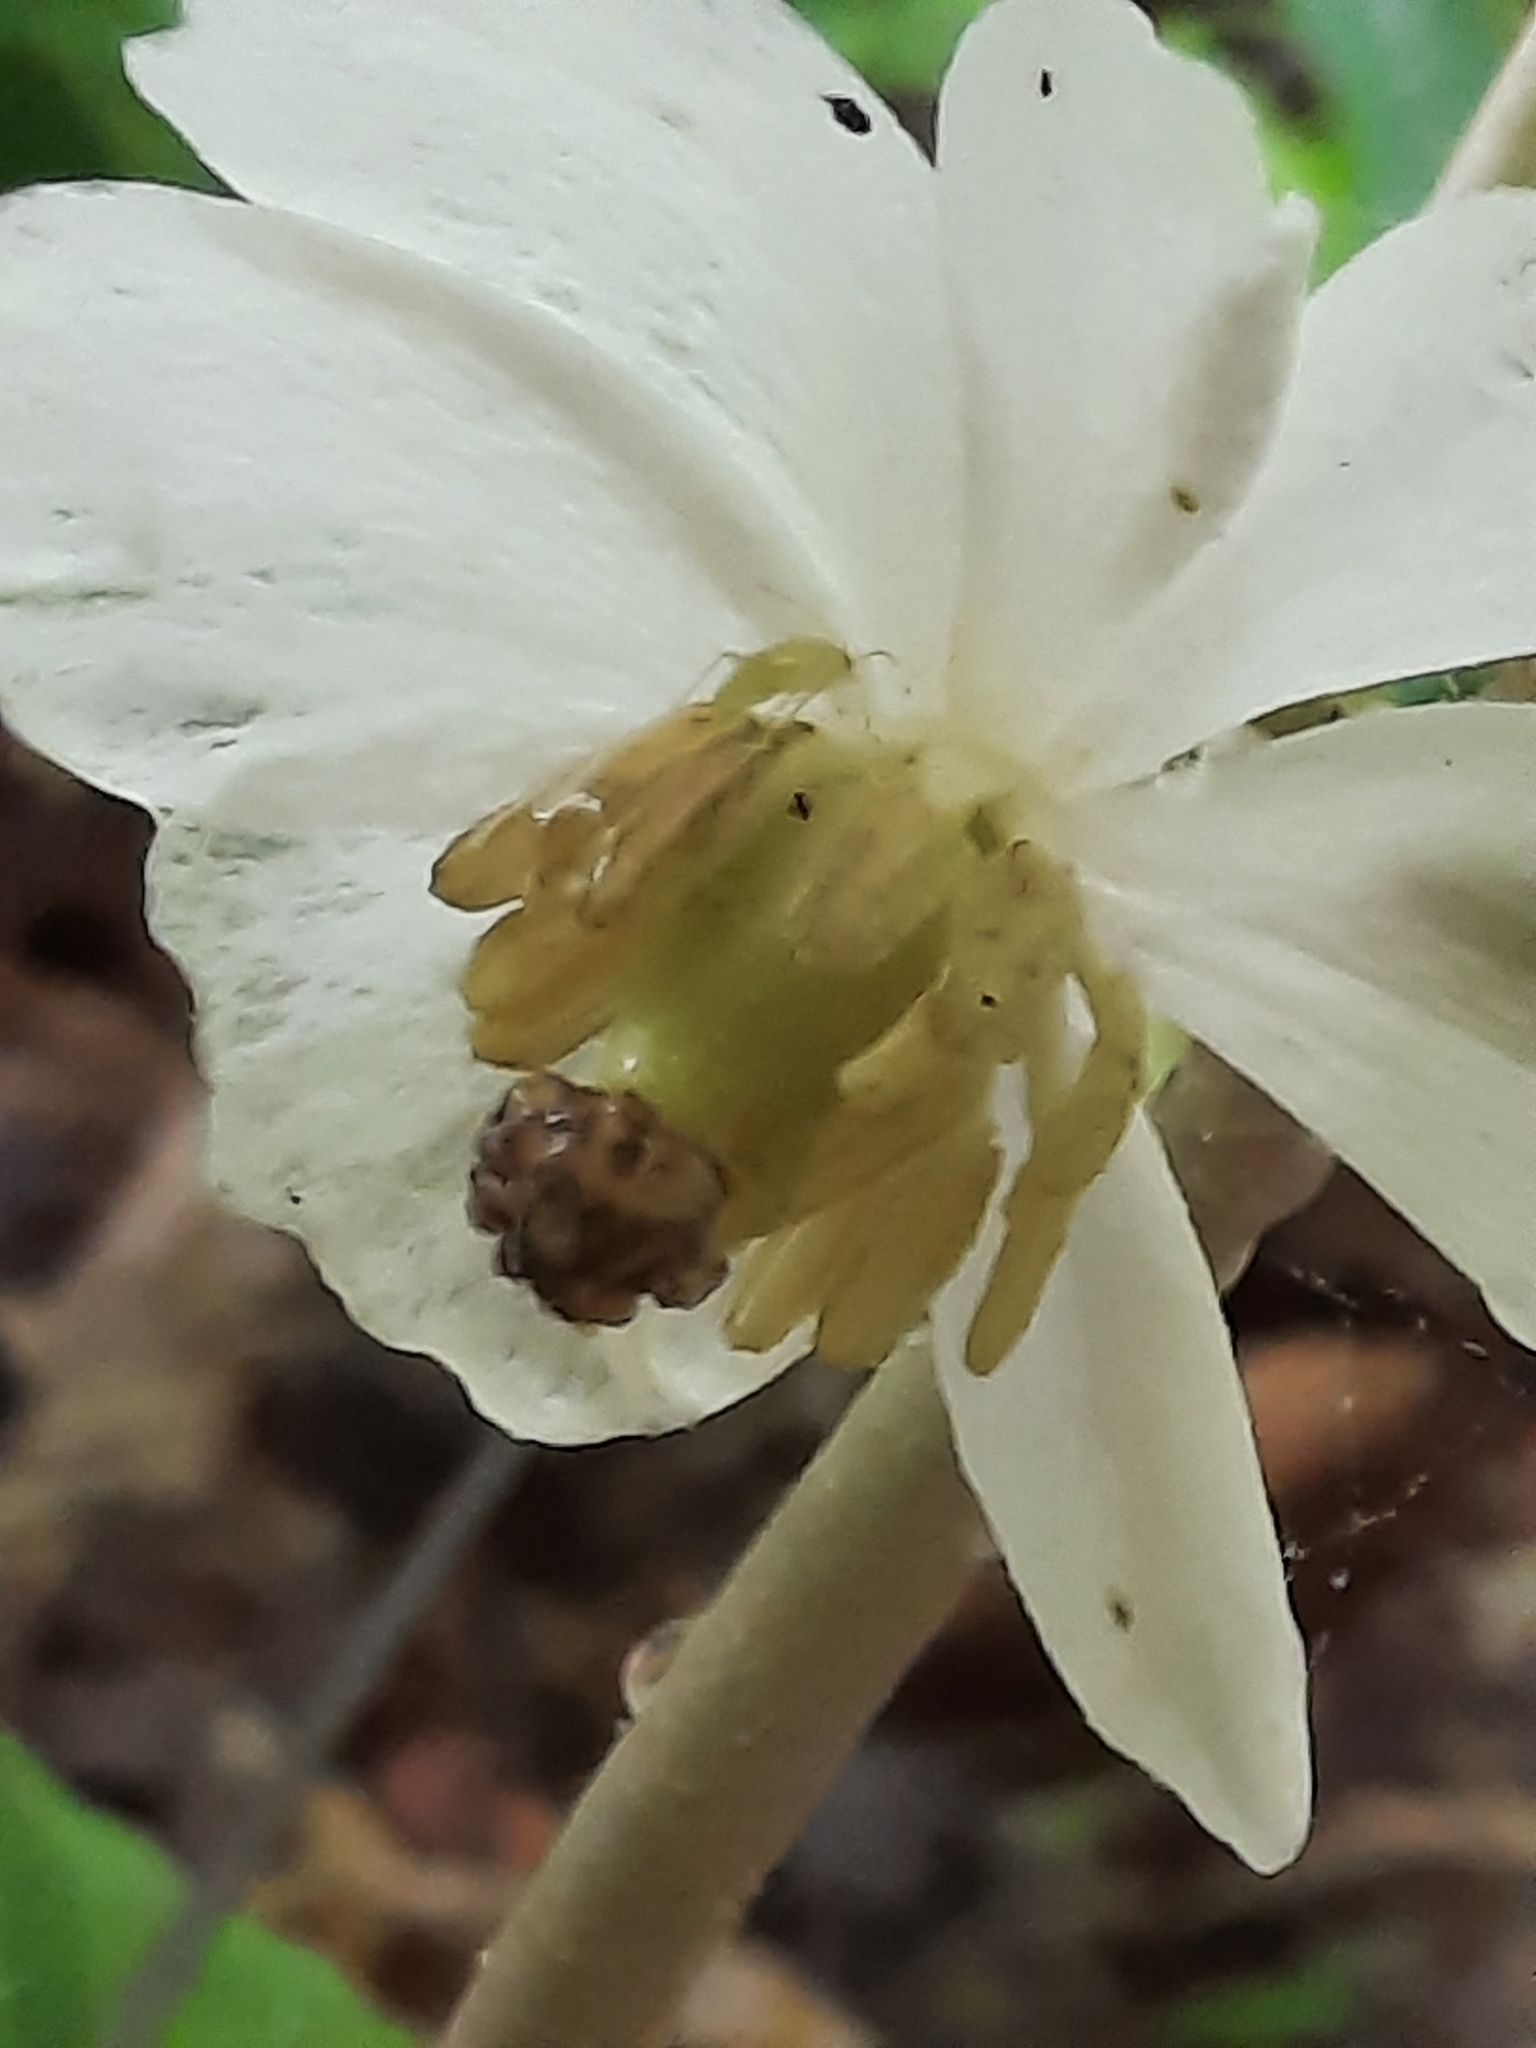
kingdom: Plantae
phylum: Tracheophyta
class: Magnoliopsida
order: Ranunculales
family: Berberidaceae
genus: Podophyllum
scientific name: Podophyllum peltatum
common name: Wild mandrake
